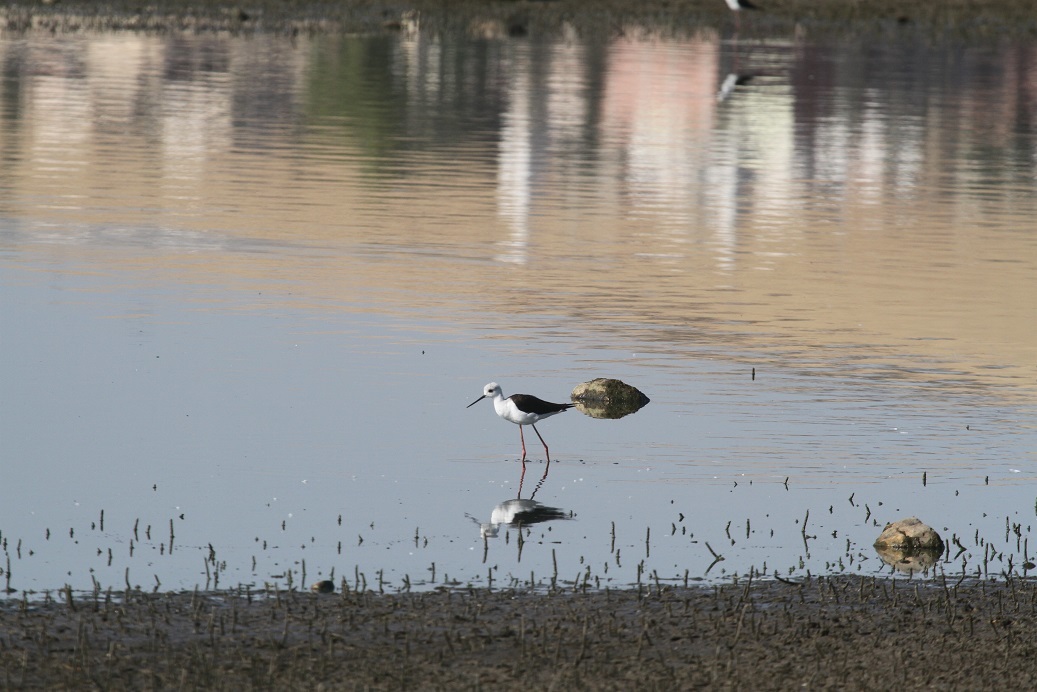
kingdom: Animalia
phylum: Chordata
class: Aves
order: Charadriiformes
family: Recurvirostridae
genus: Himantopus
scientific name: Himantopus himantopus
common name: Black-winged stilt
